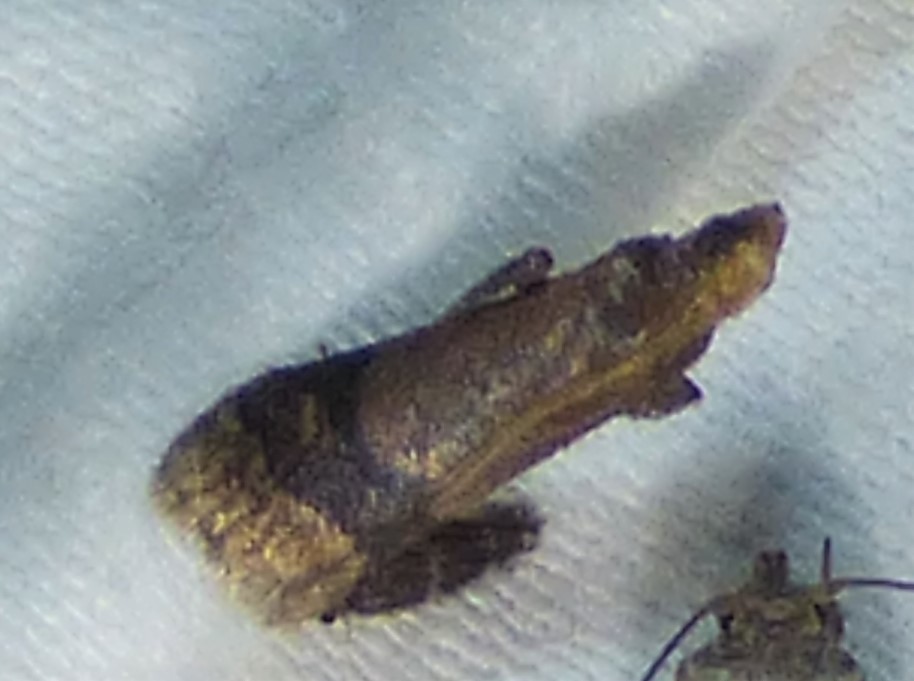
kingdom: Animalia
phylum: Arthropoda
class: Insecta
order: Lepidoptera
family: Pyralidae
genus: Eulogia
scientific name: Eulogia ochrifrontella
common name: Broad-banded eulogia moth
